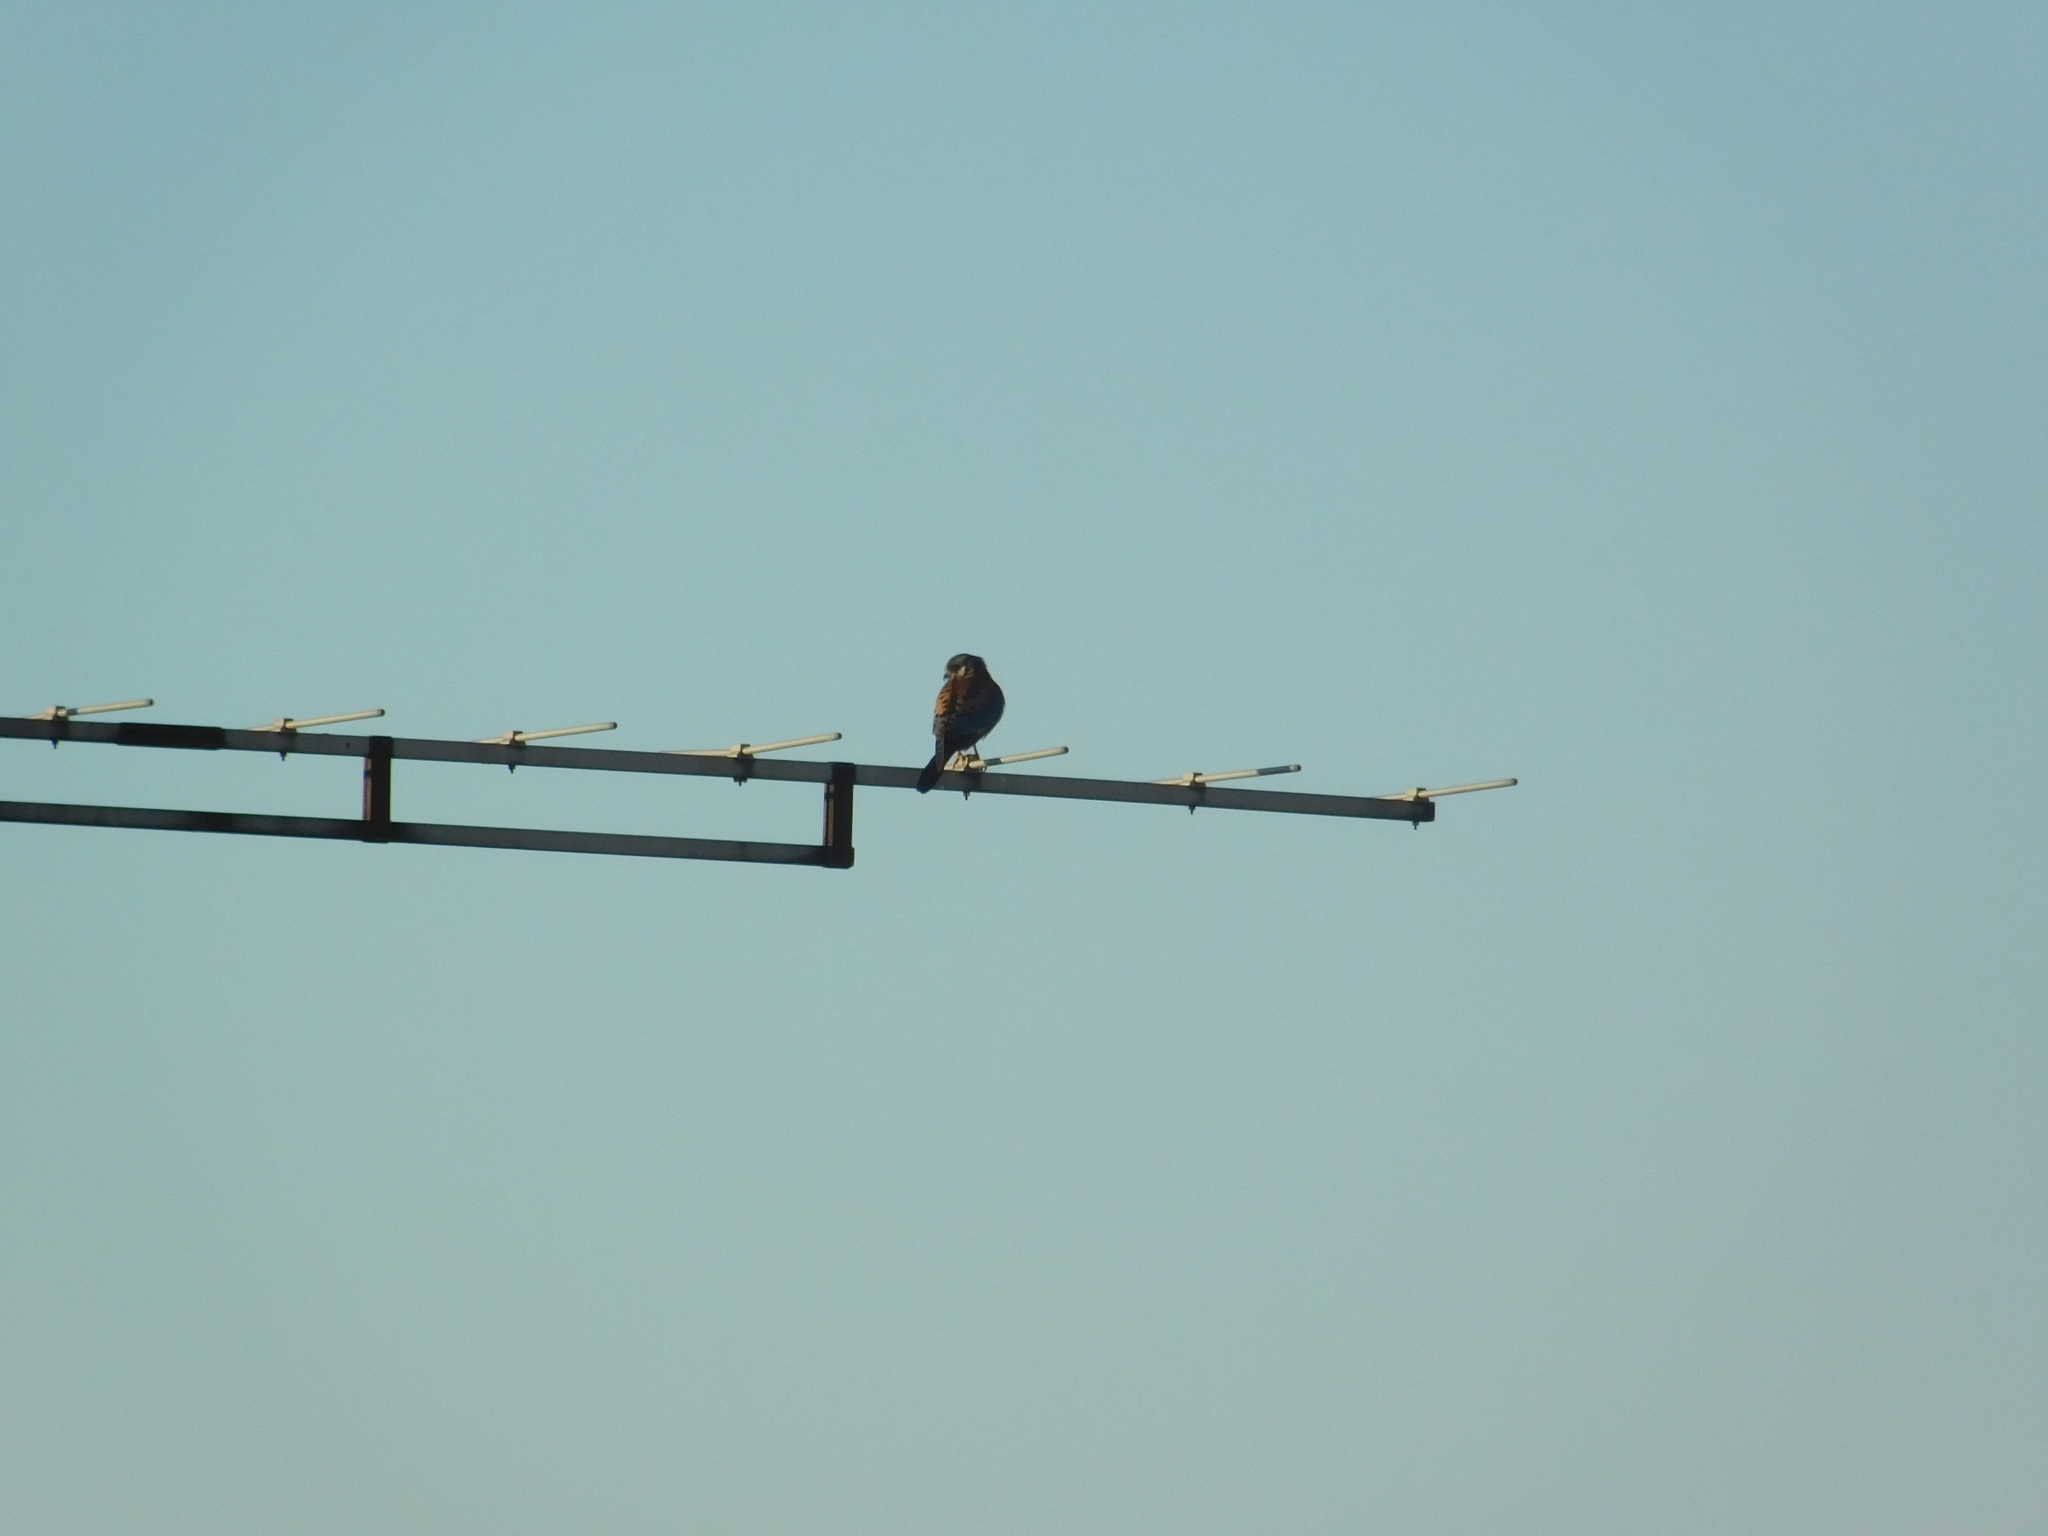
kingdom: Animalia
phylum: Chordata
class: Aves
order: Falconiformes
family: Falconidae
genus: Falco
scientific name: Falco sparverius
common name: American kestrel
